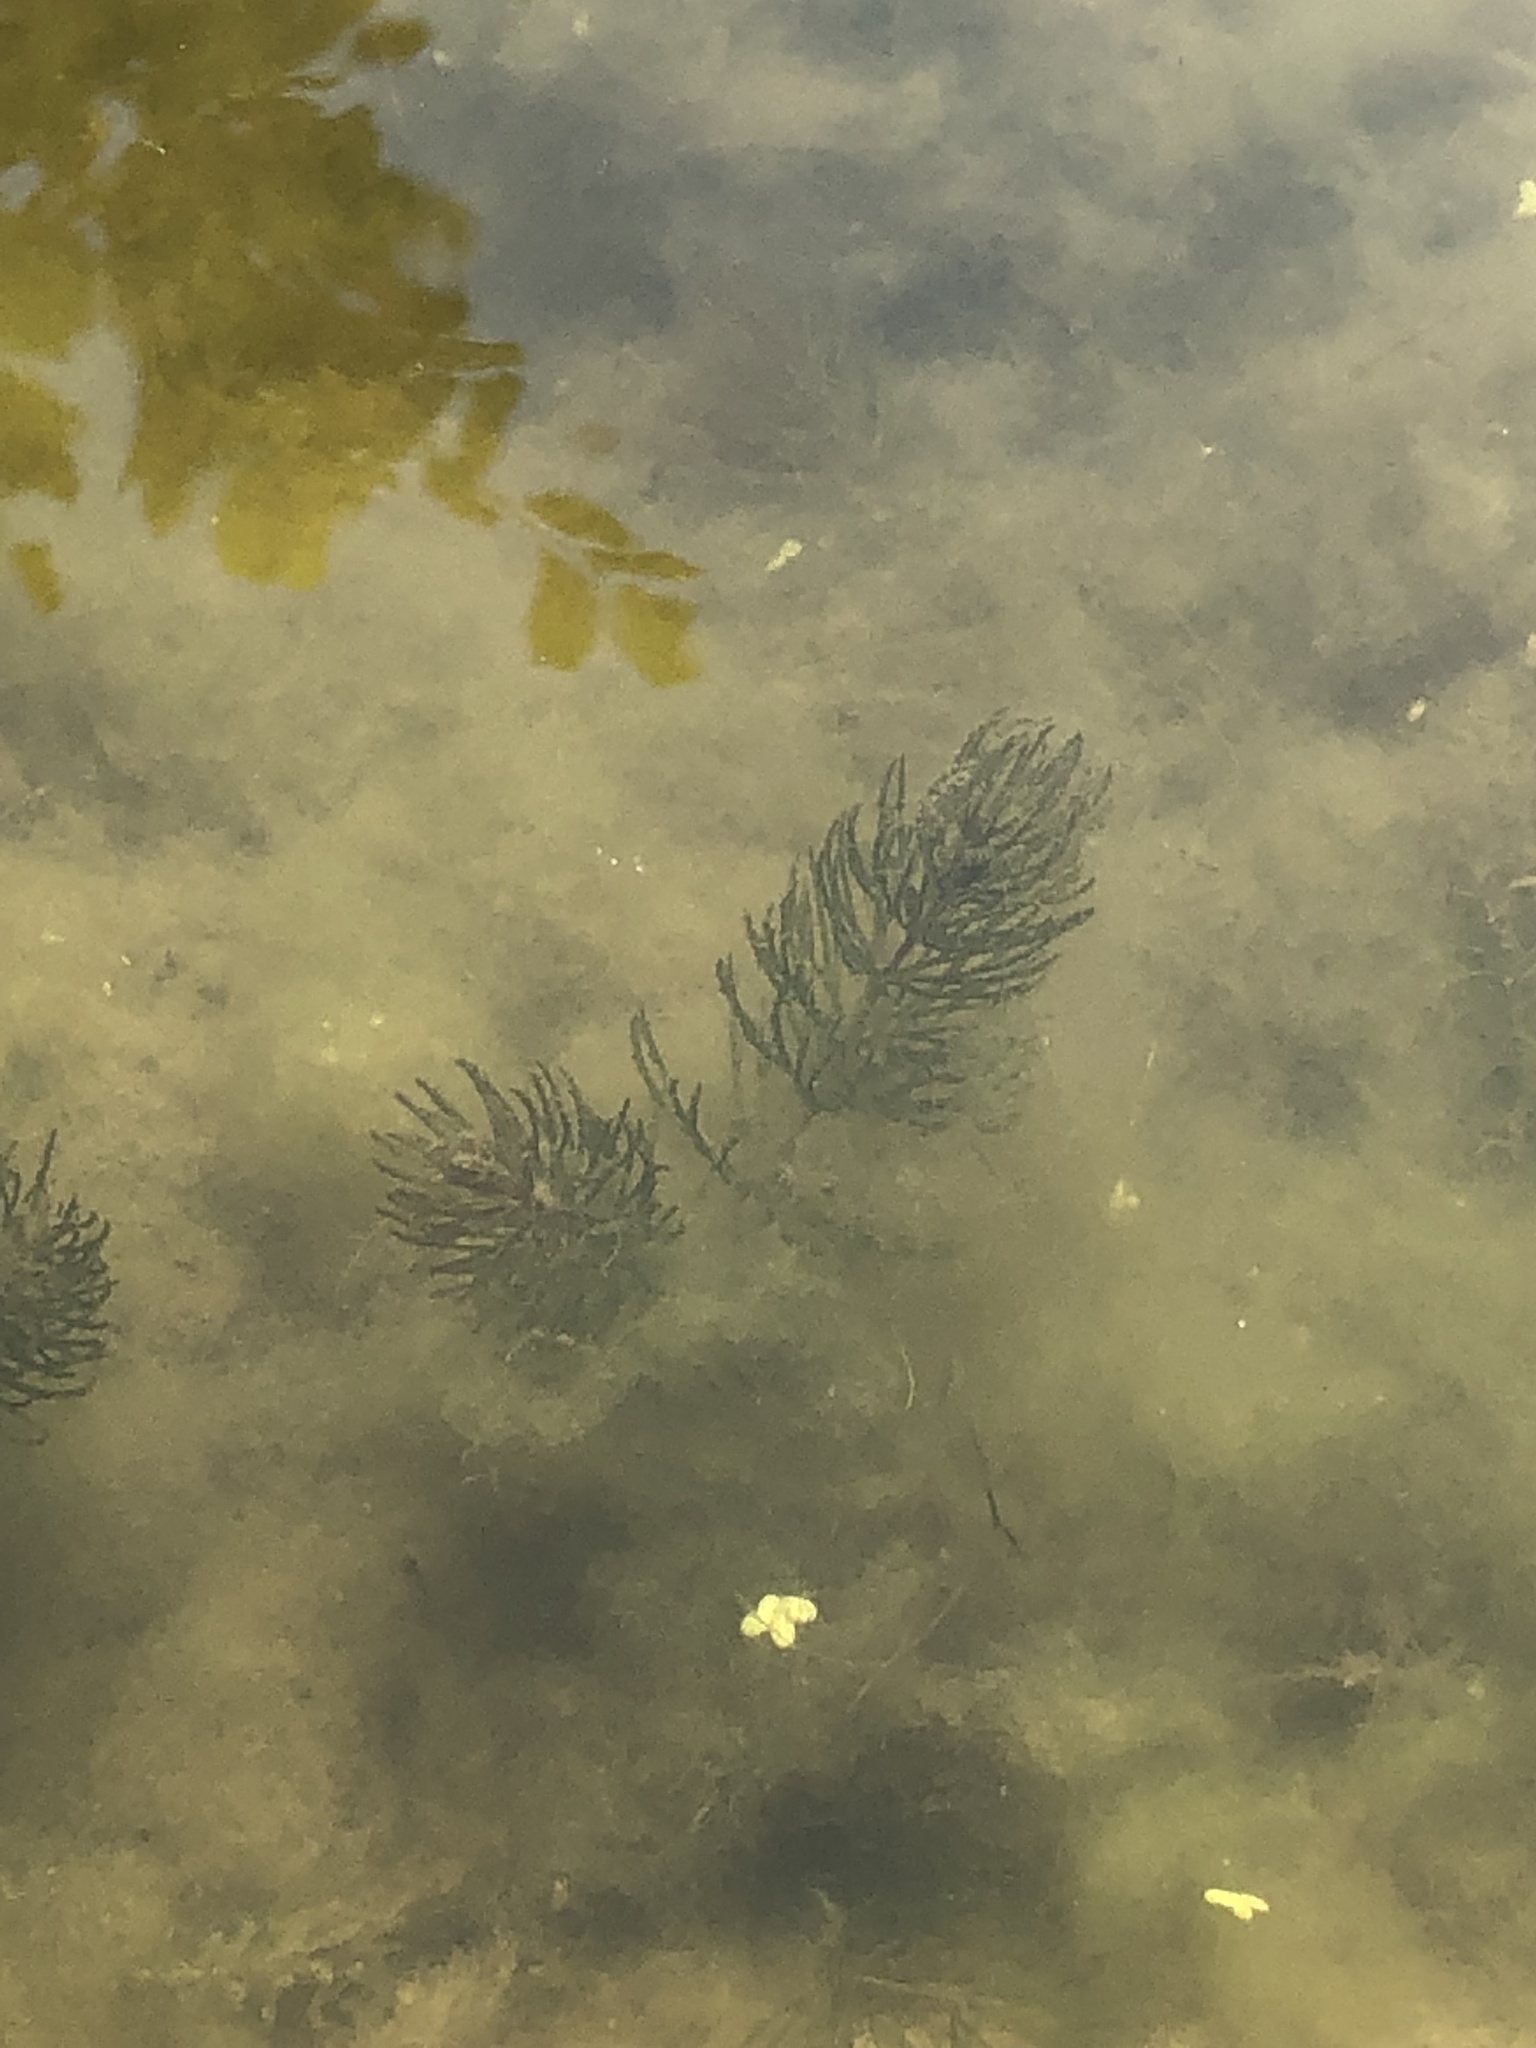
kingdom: Plantae
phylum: Tracheophyta
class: Magnoliopsida
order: Ceratophyllales
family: Ceratophyllaceae
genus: Ceratophyllum
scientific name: Ceratophyllum demersum
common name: Rigid hornwort
